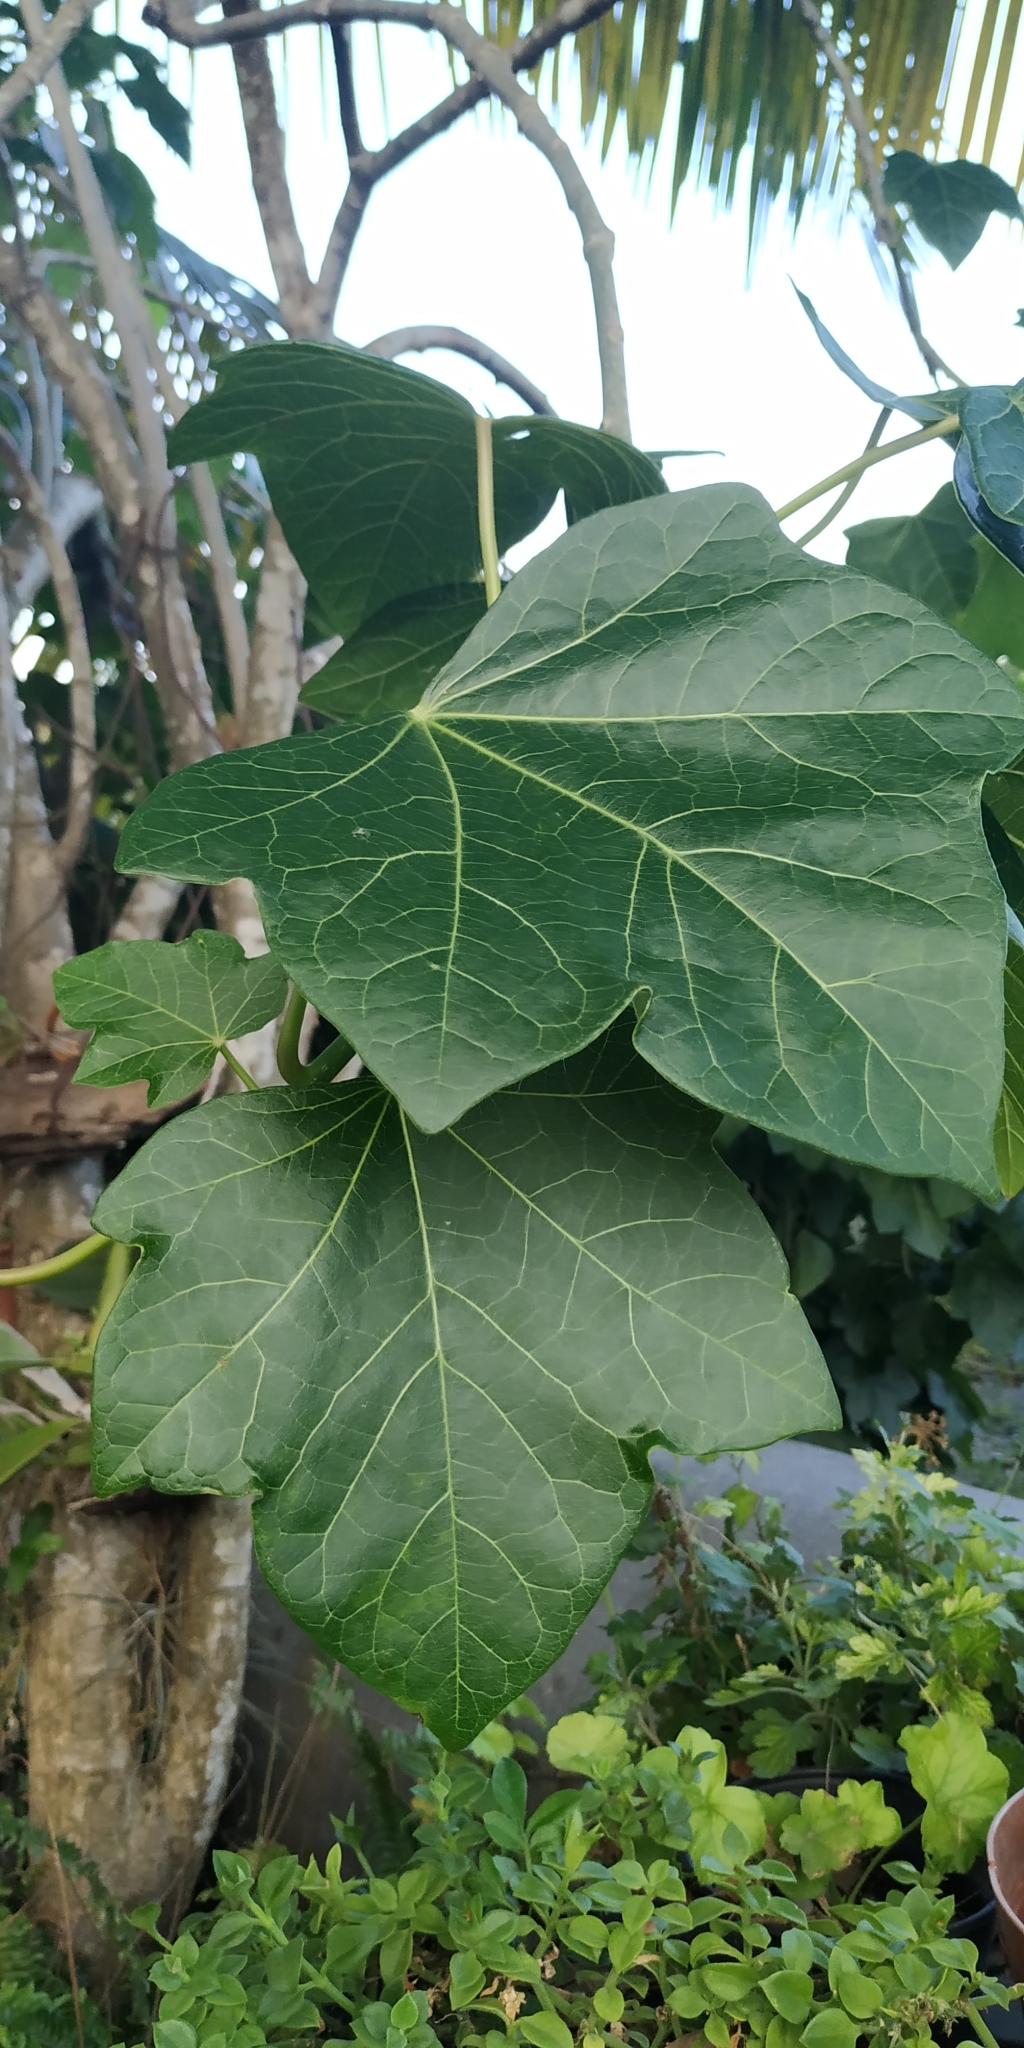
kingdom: Plantae
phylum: Tracheophyta
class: Magnoliopsida
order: Malpighiales
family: Euphorbiaceae
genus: Jatropha
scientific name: Jatropha curcas
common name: Barbados nut
